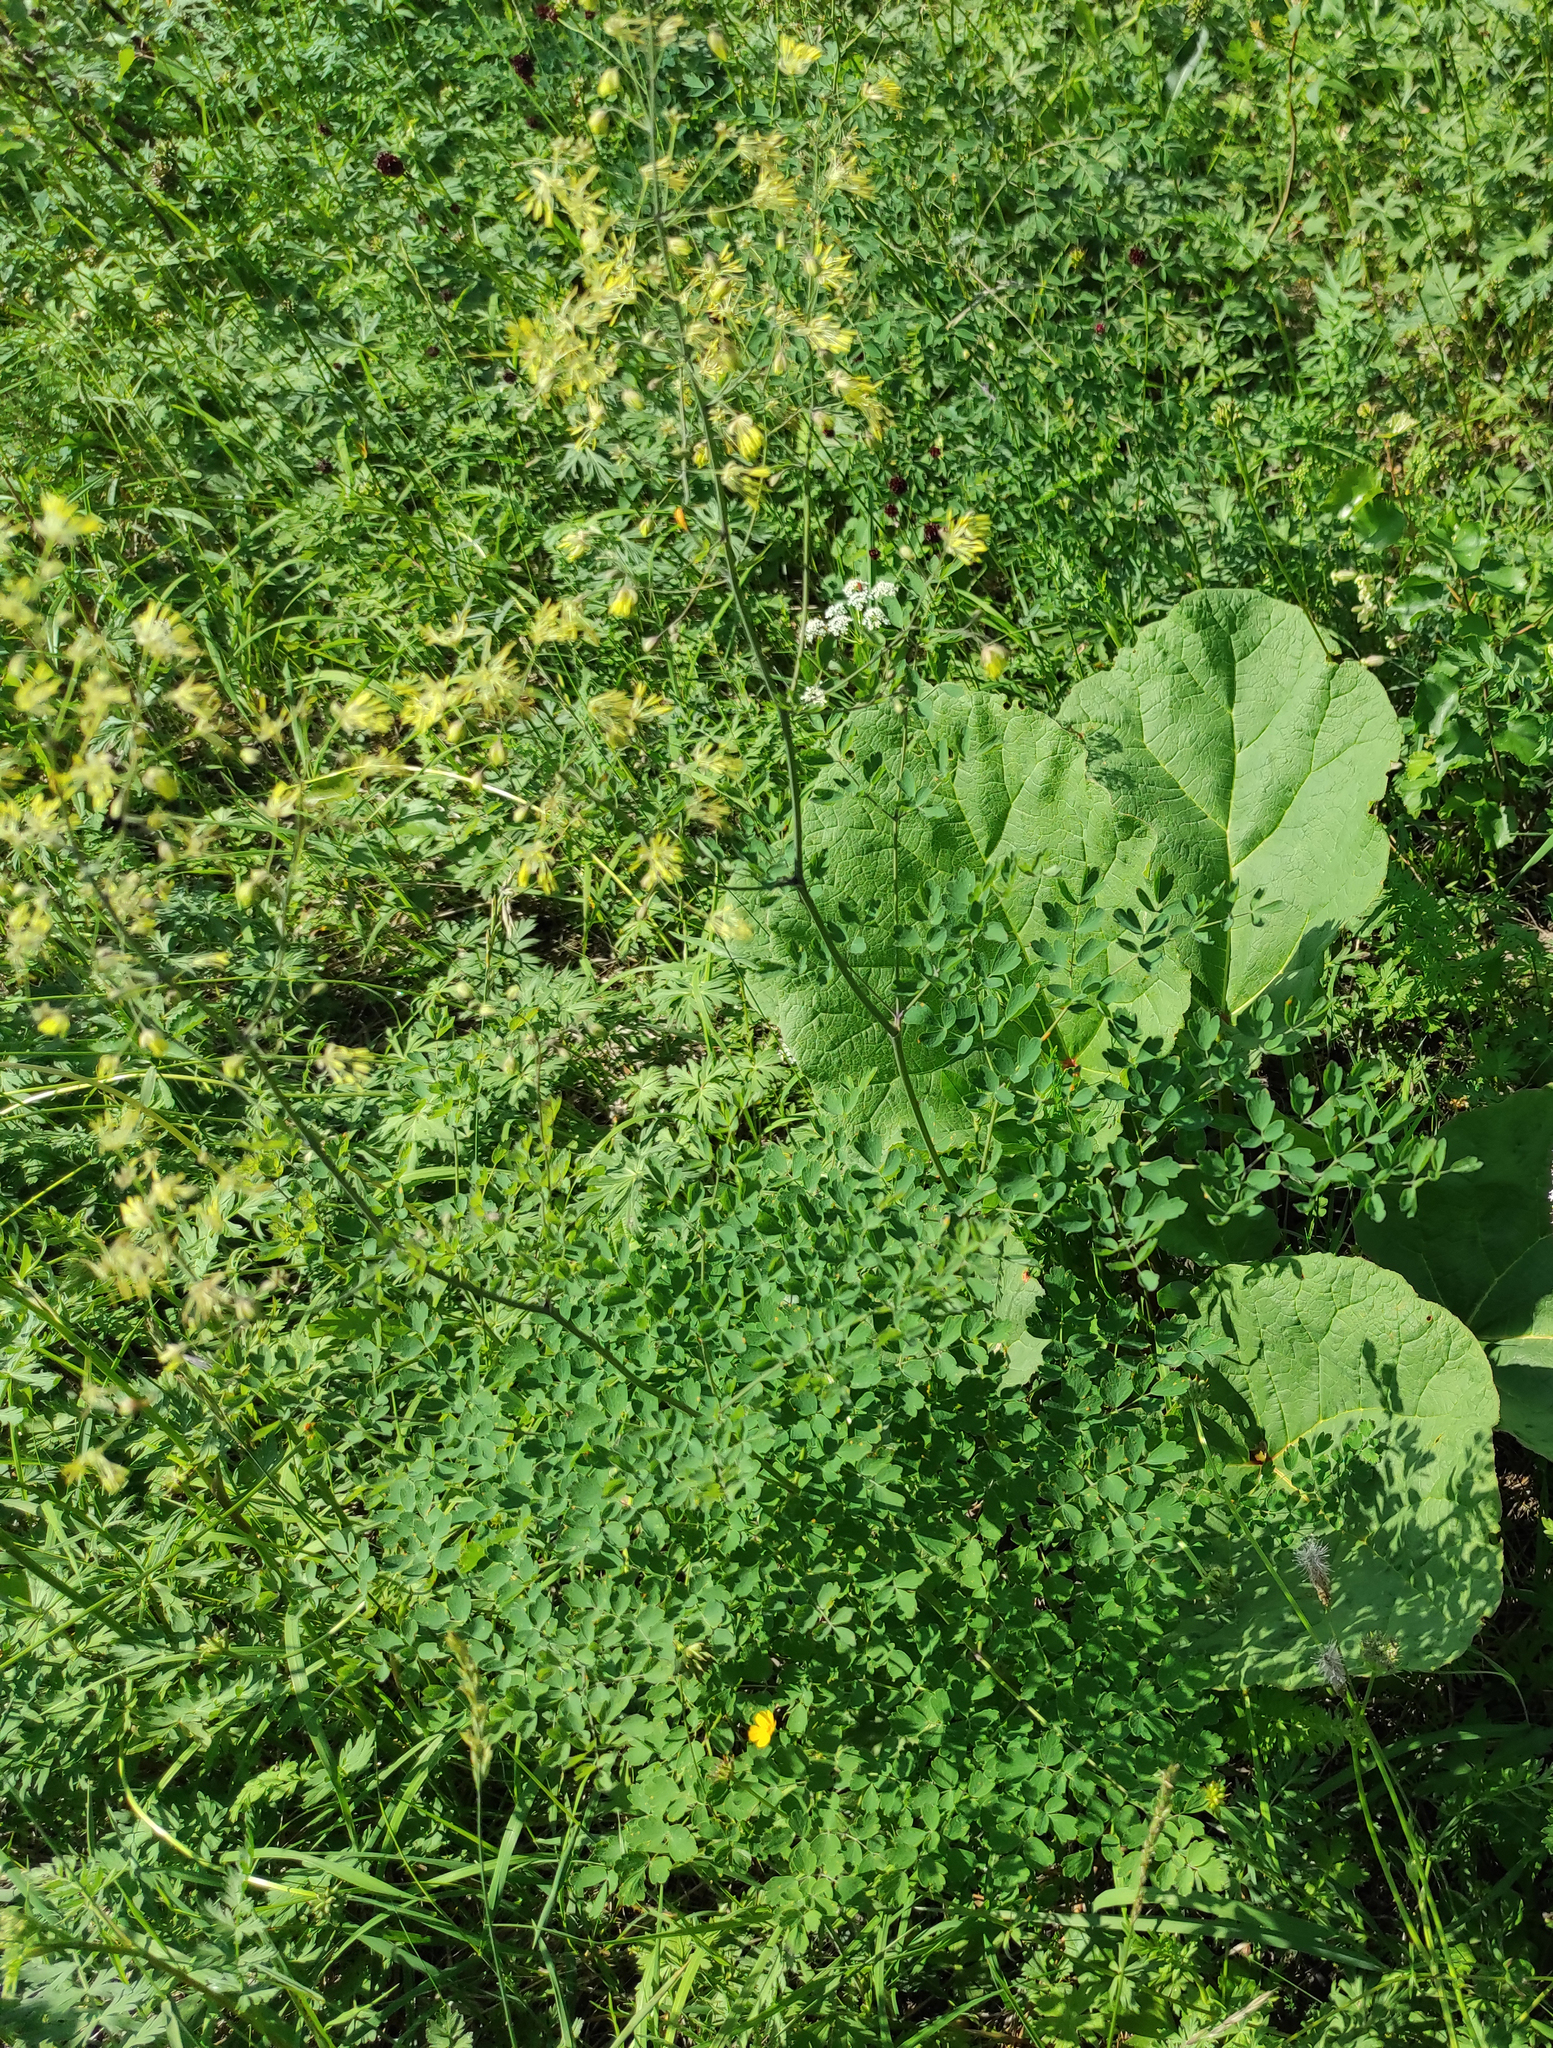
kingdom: Plantae
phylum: Tracheophyta
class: Magnoliopsida
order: Ranunculales
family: Ranunculaceae
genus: Thalictrum
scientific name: Thalictrum minus
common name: Lesser meadow-rue
